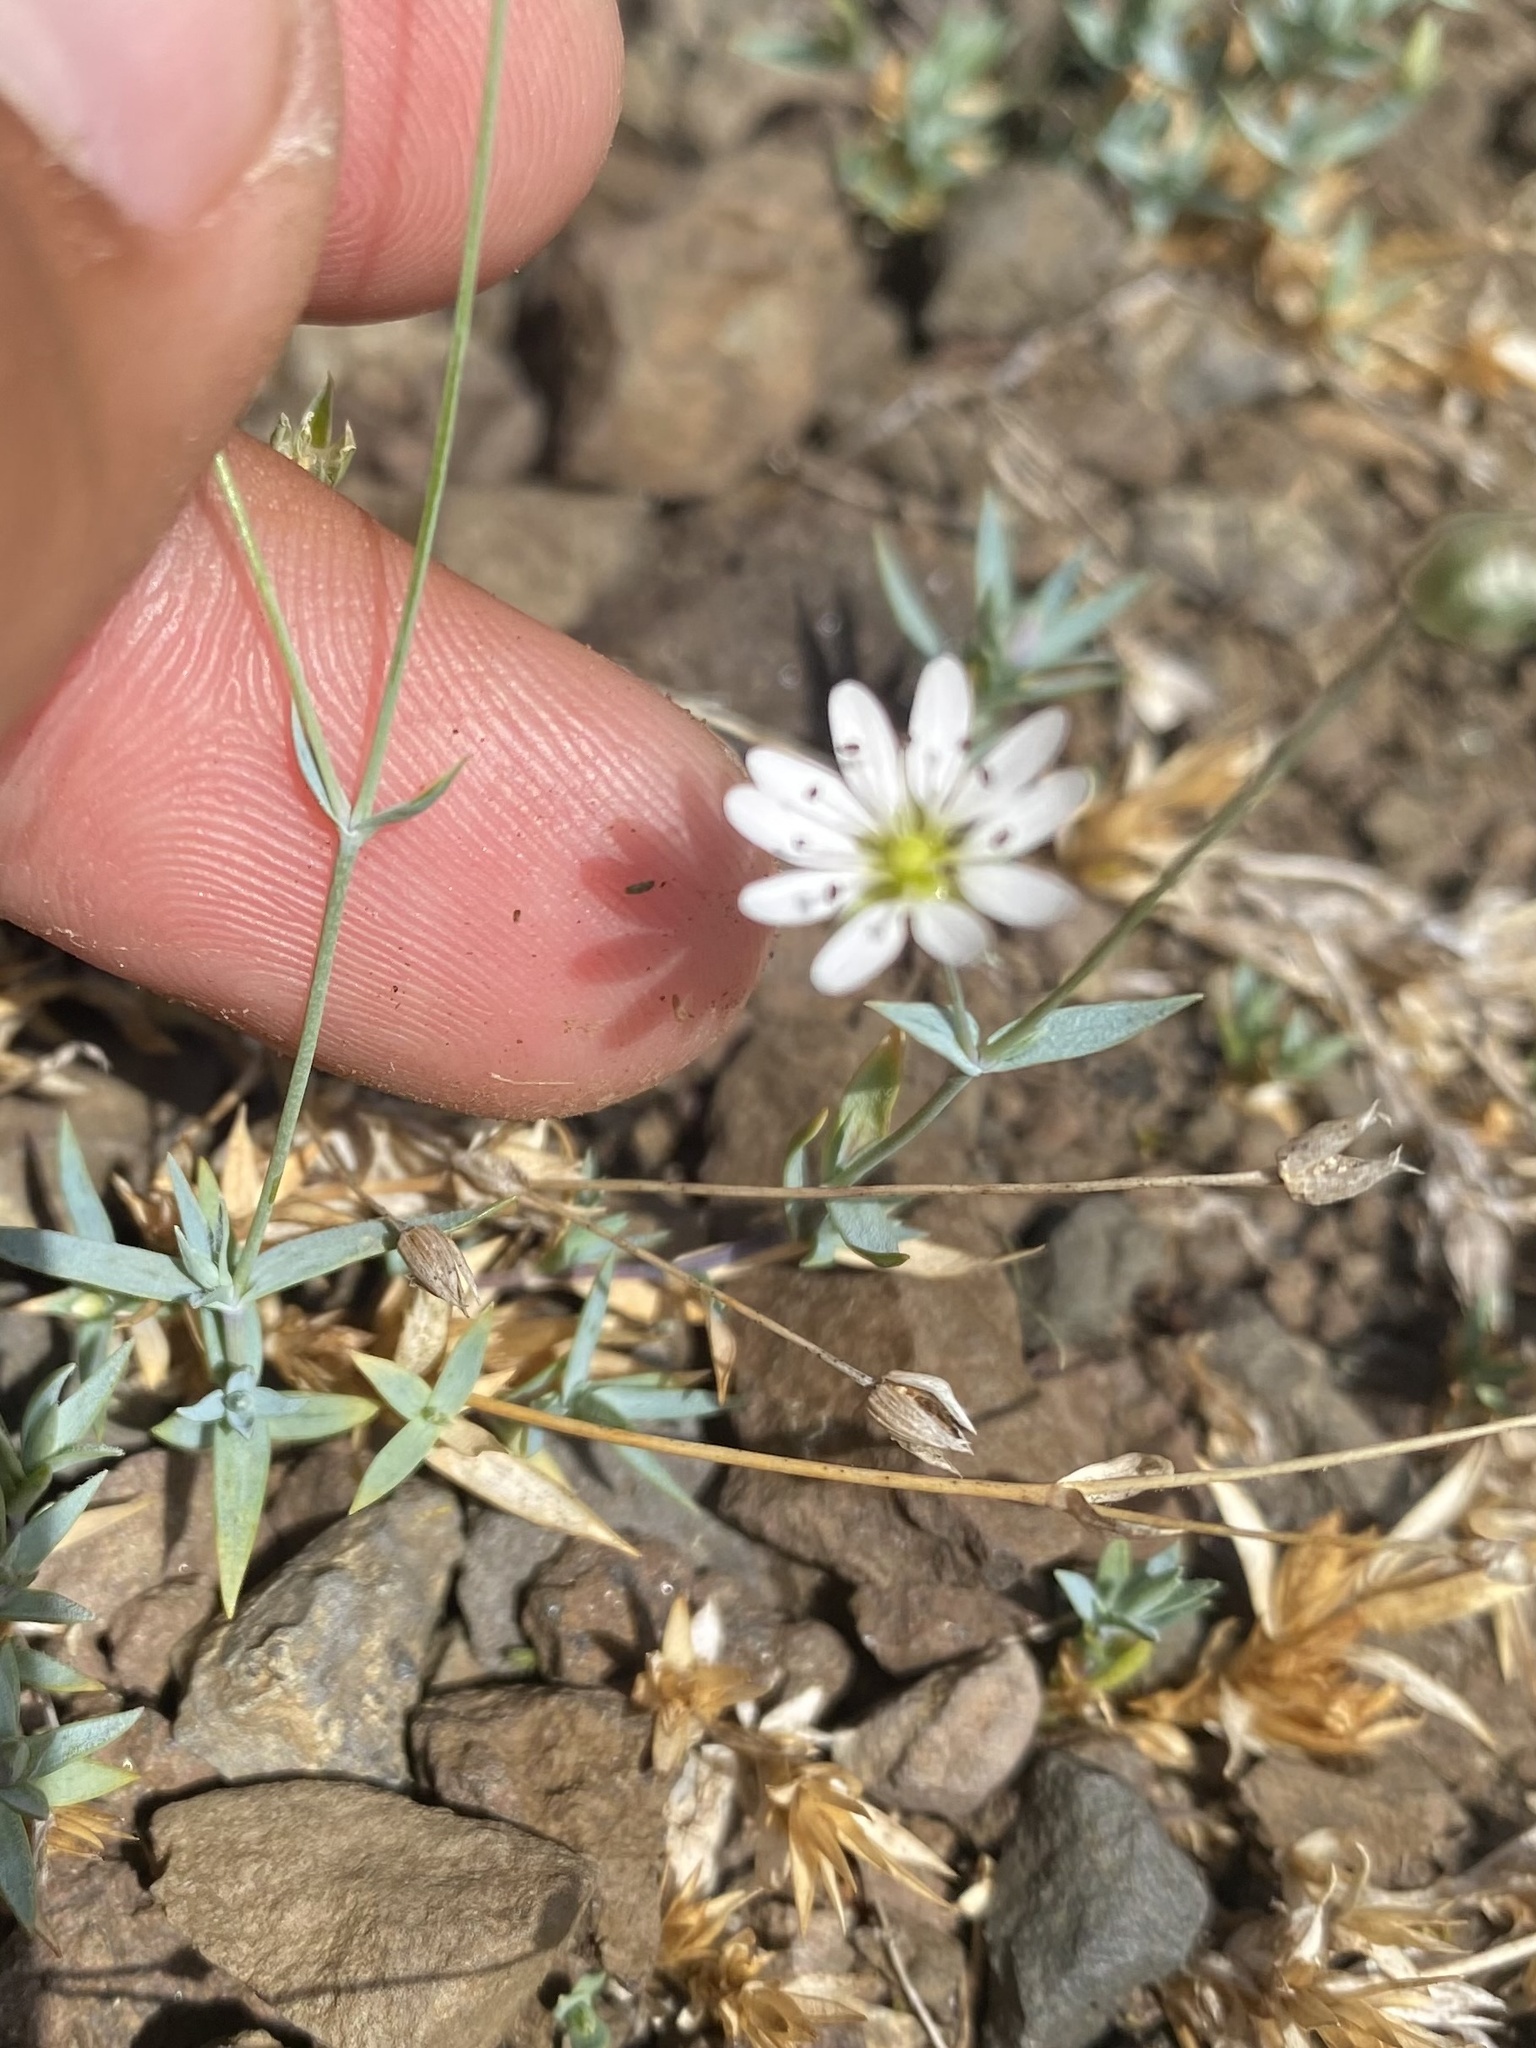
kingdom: Plantae
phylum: Tracheophyta
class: Magnoliopsida
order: Caryophyllales
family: Caryophyllaceae
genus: Stellaria
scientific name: Stellaria fischeriana
